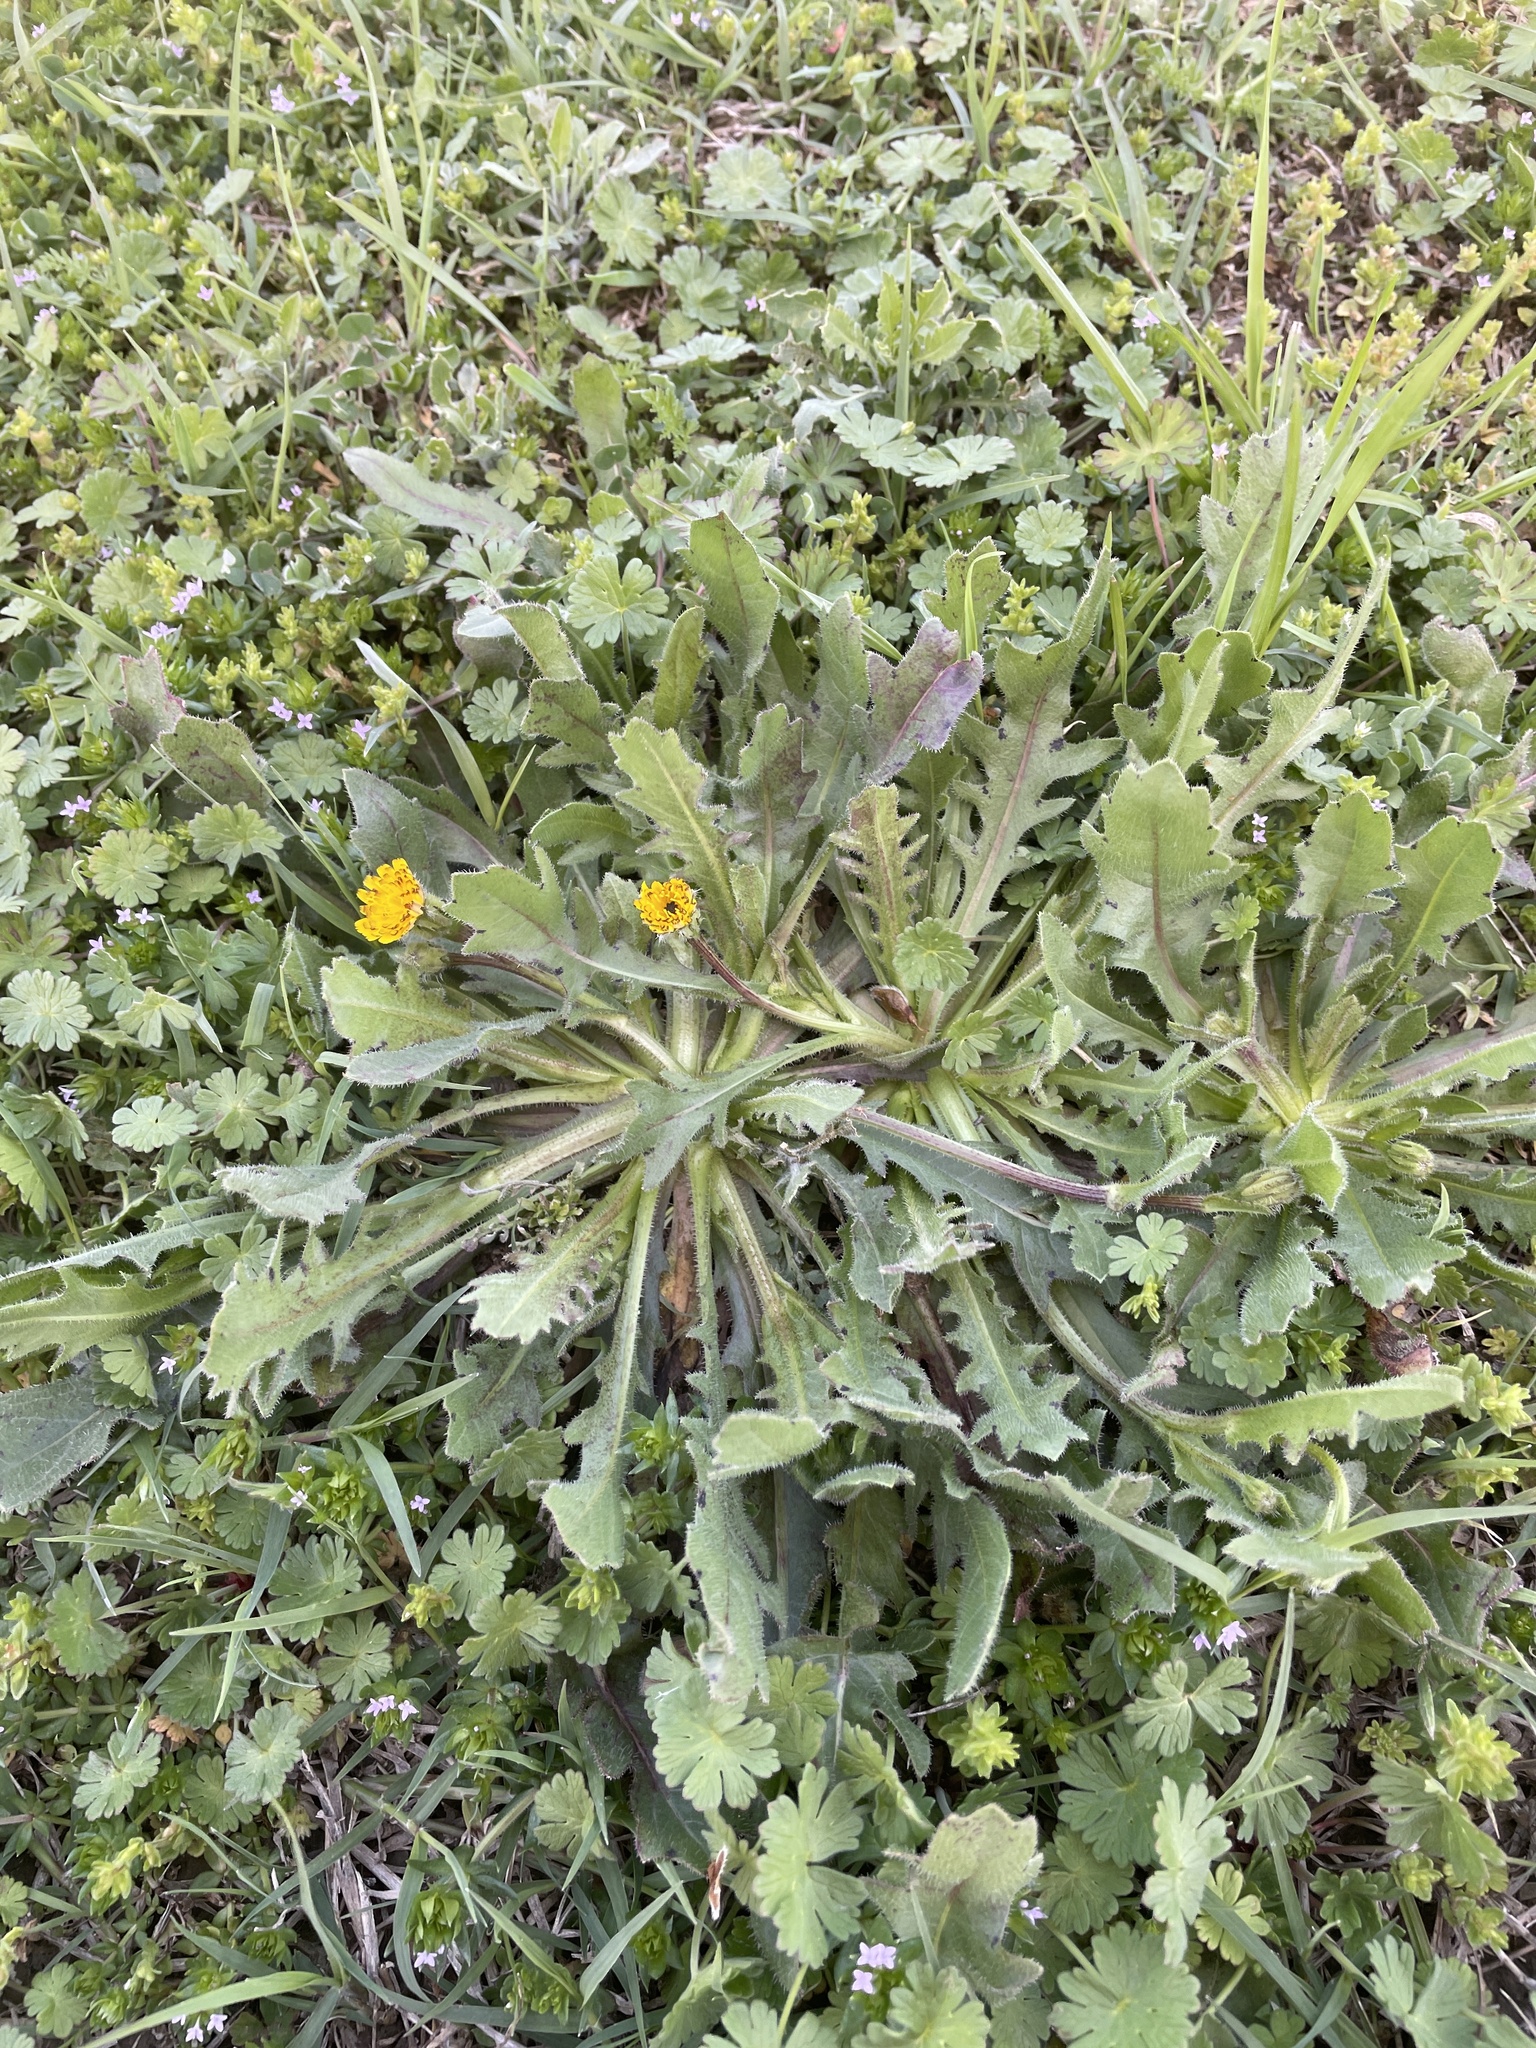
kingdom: Plantae
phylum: Tracheophyta
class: Magnoliopsida
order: Asterales
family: Asteraceae
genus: Hedypnois
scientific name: Hedypnois rhagadioloides
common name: Cretan weed
